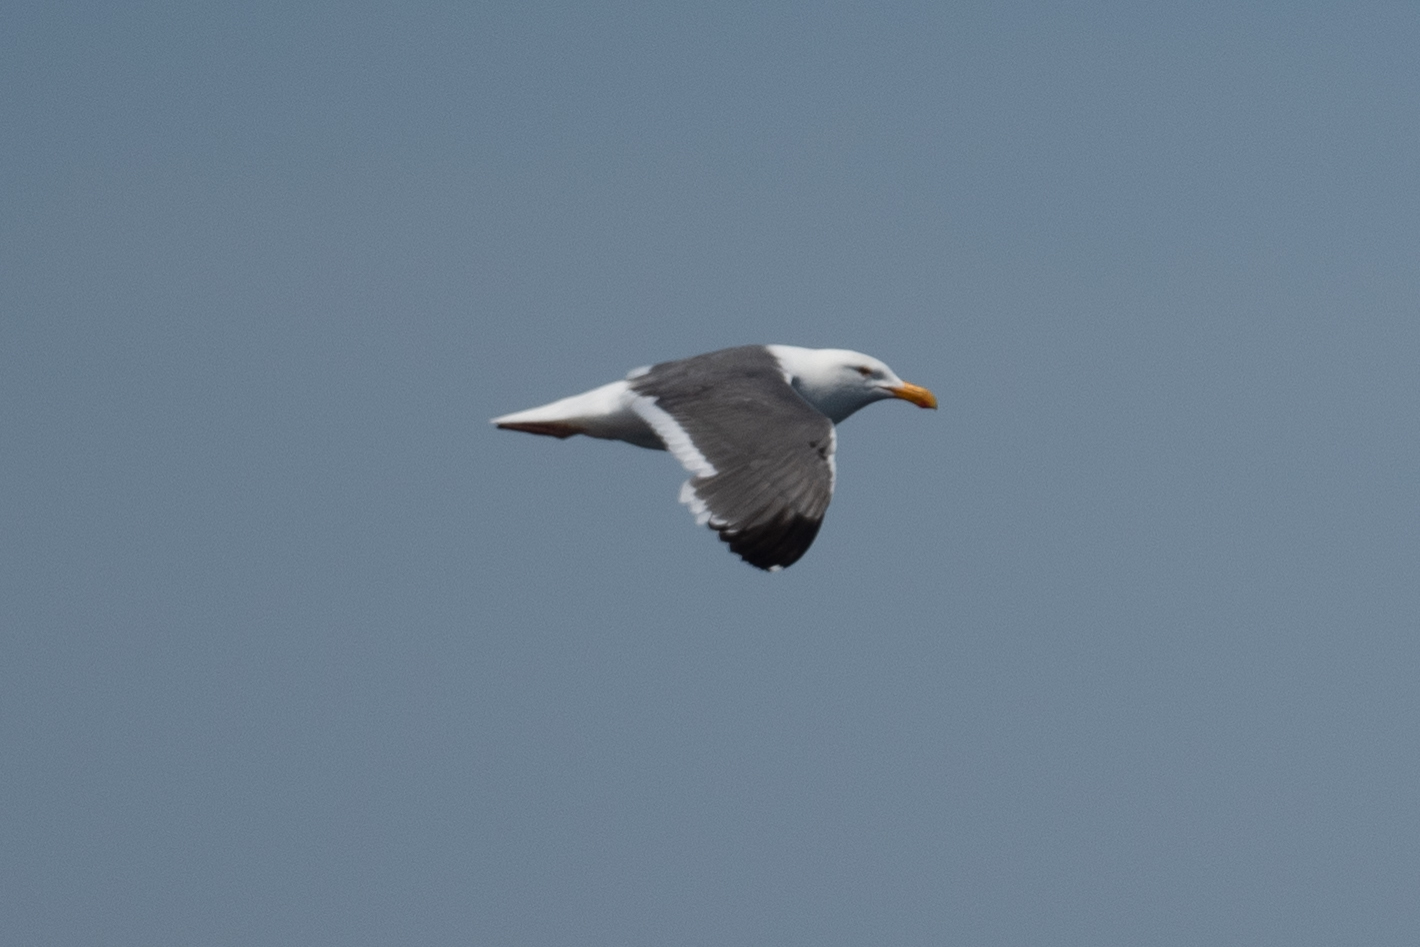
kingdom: Animalia
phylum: Chordata
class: Aves
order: Charadriiformes
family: Laridae
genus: Larus
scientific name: Larus occidentalis
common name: Western gull
